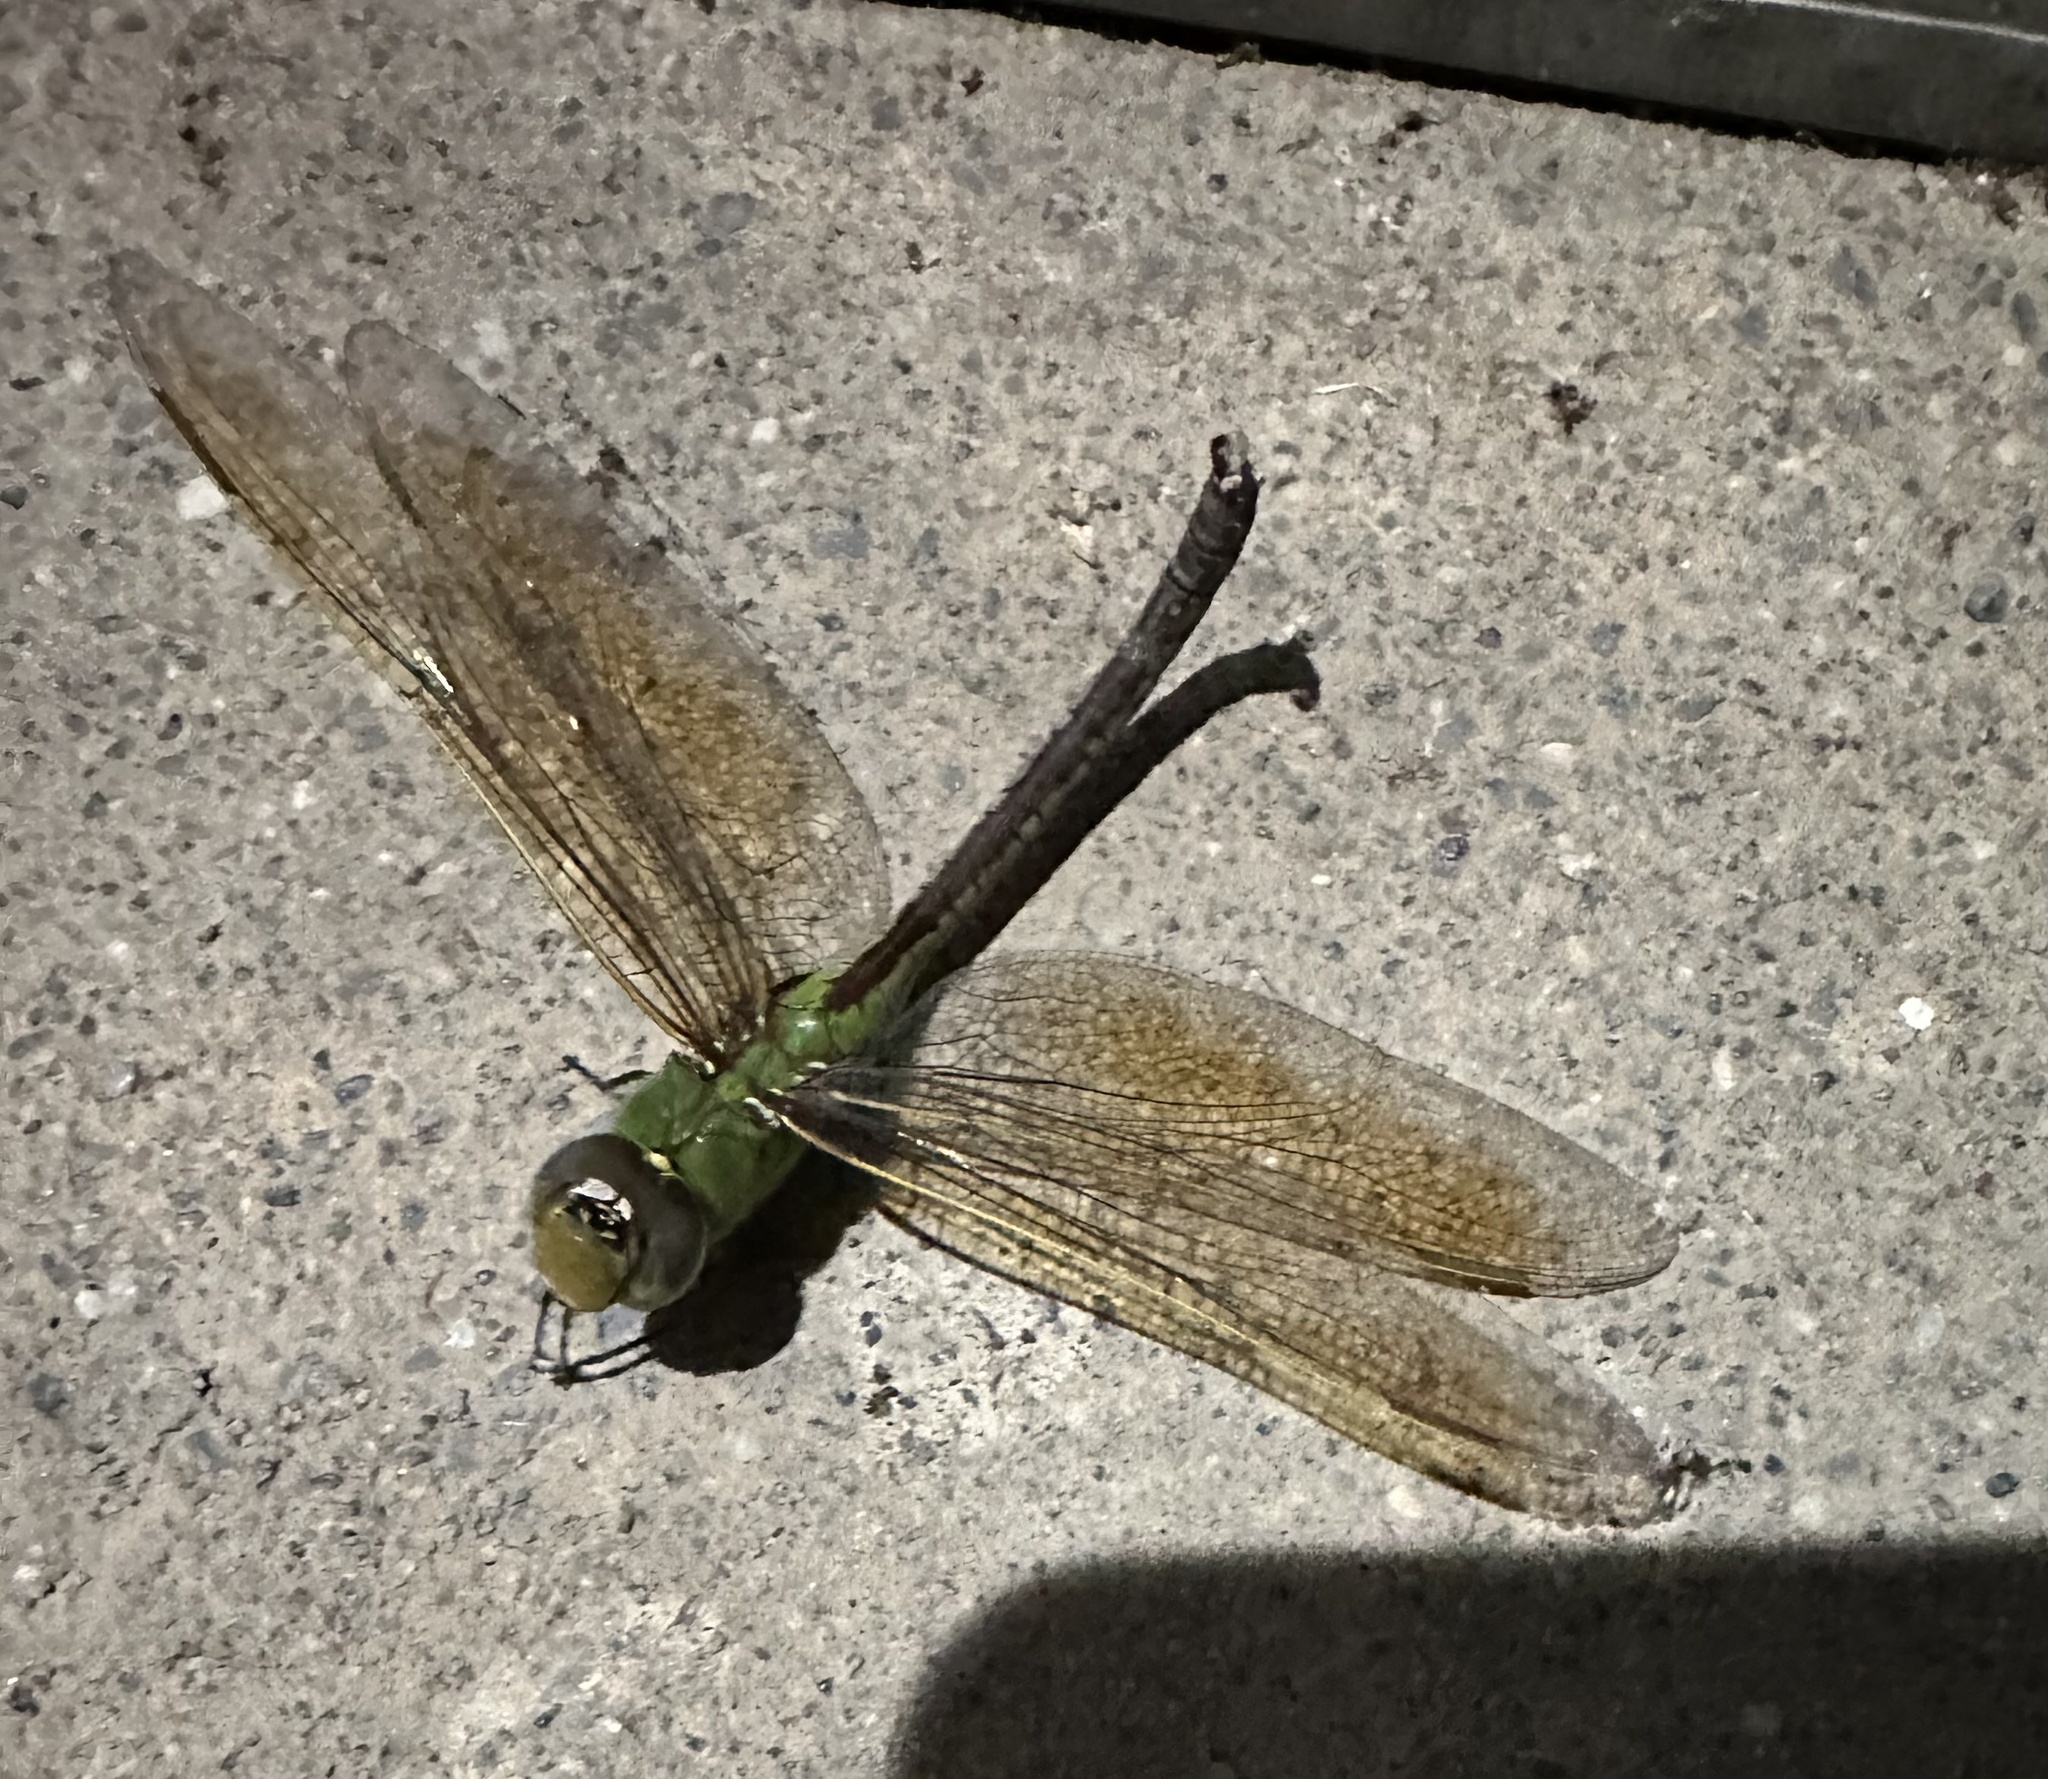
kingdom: Animalia
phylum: Arthropoda
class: Insecta
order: Odonata
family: Aeshnidae
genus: Anax
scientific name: Anax junius
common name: Common green darner
